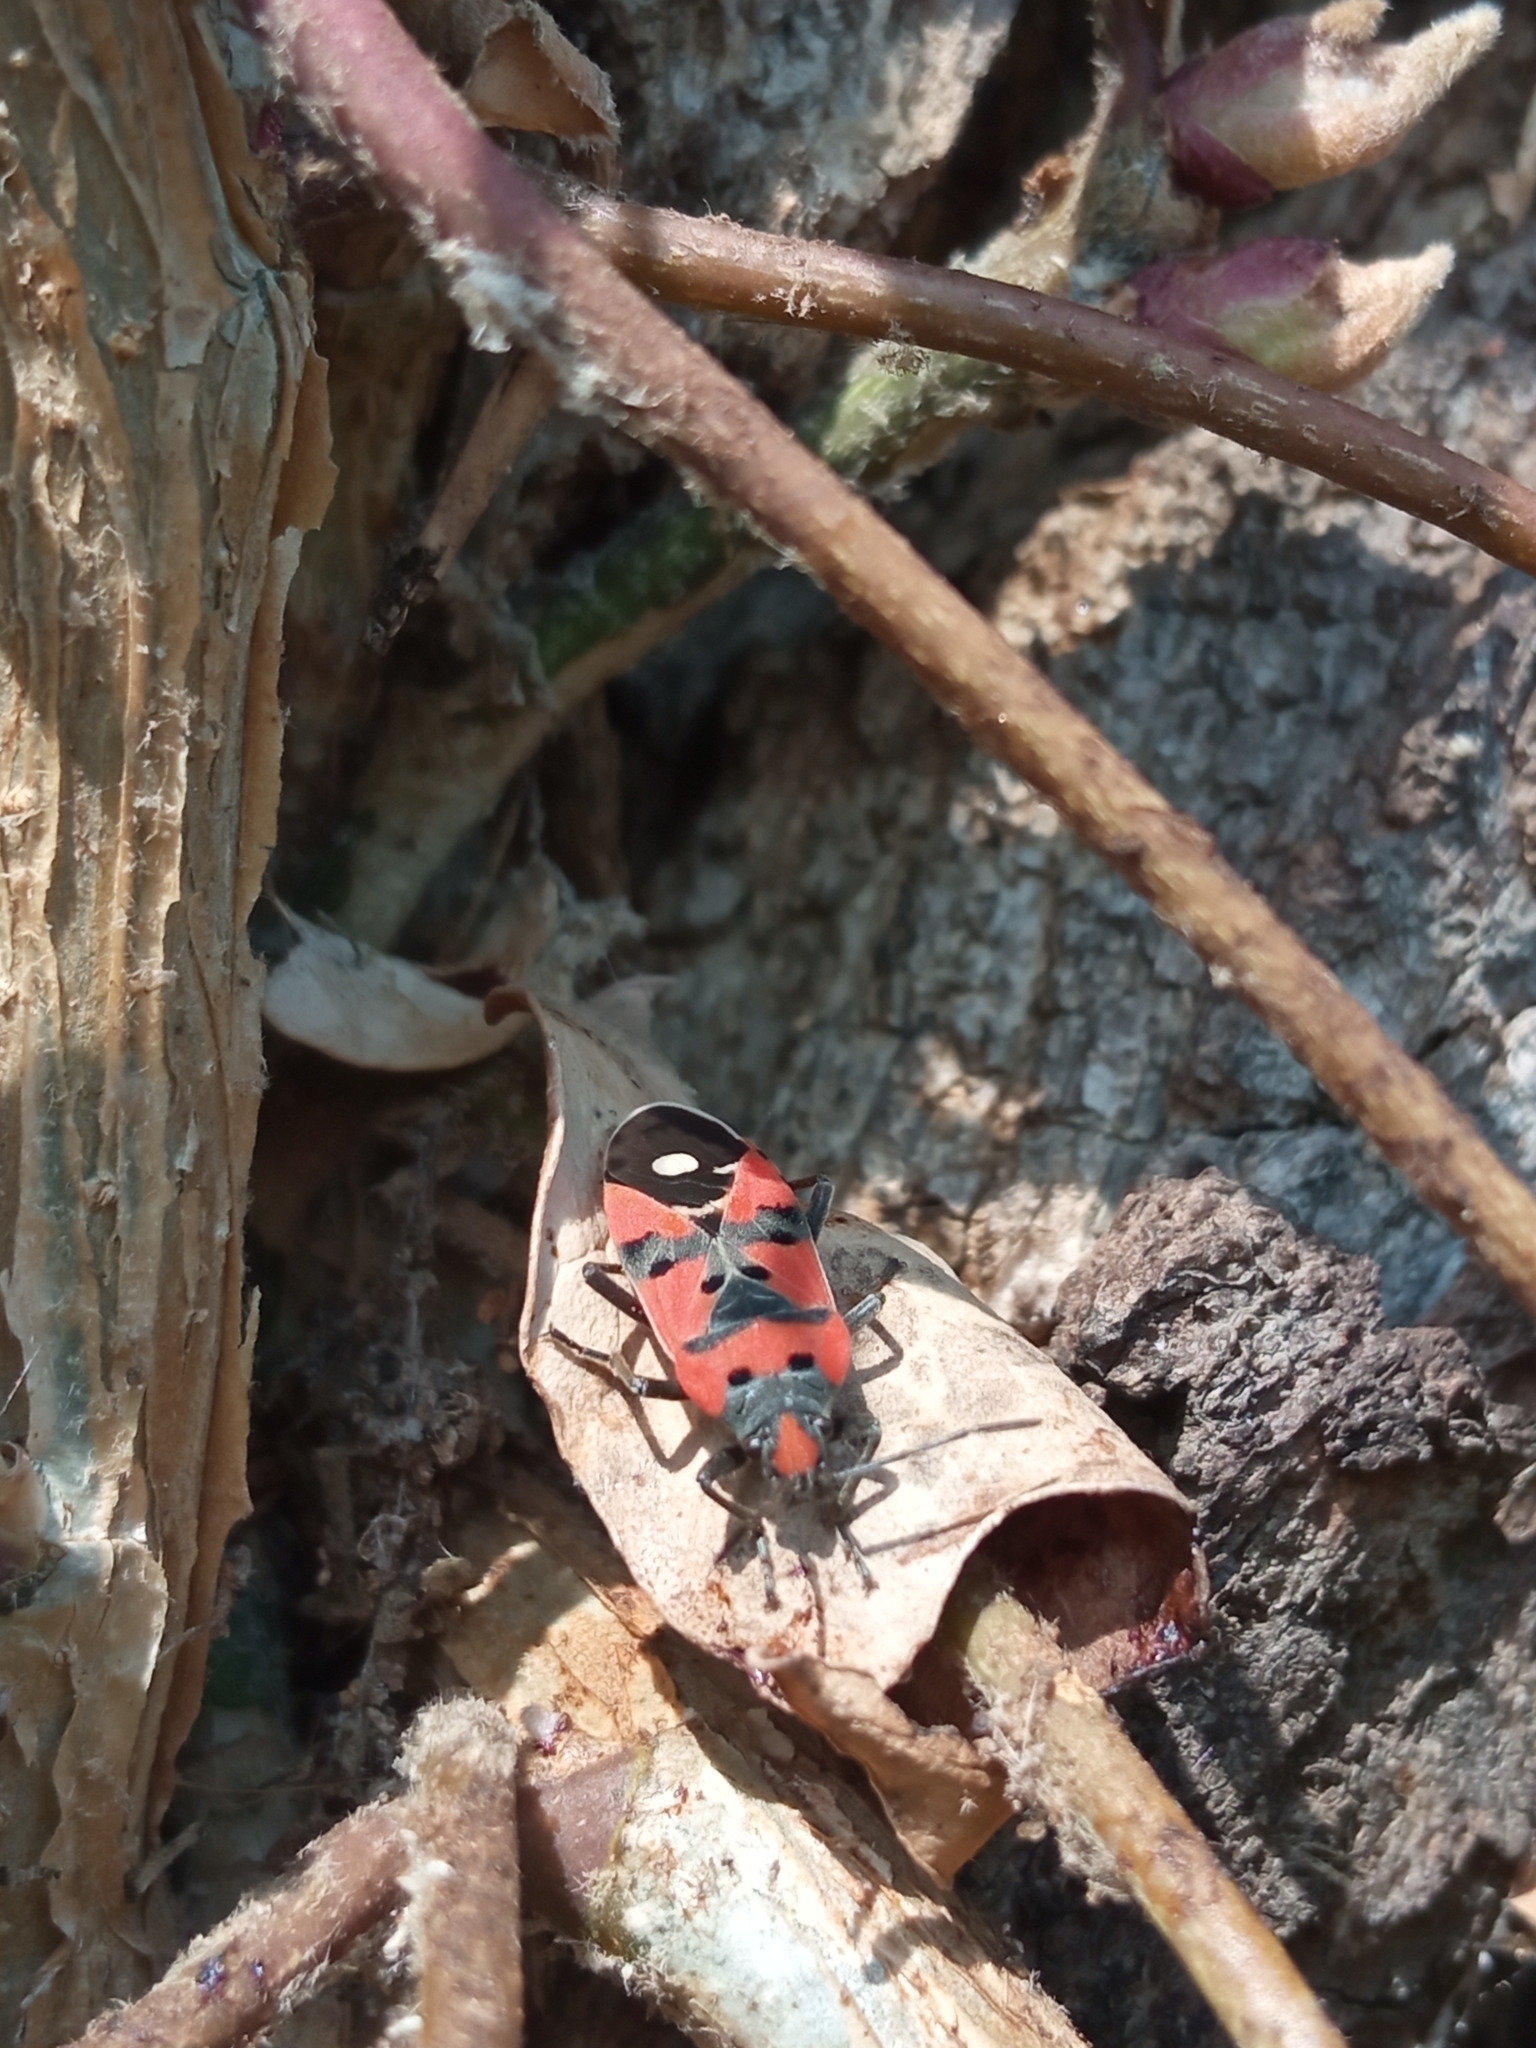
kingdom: Animalia
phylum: Arthropoda
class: Insecta
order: Hemiptera
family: Lygaeidae
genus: Lygaeus
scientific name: Lygaeus equestris
